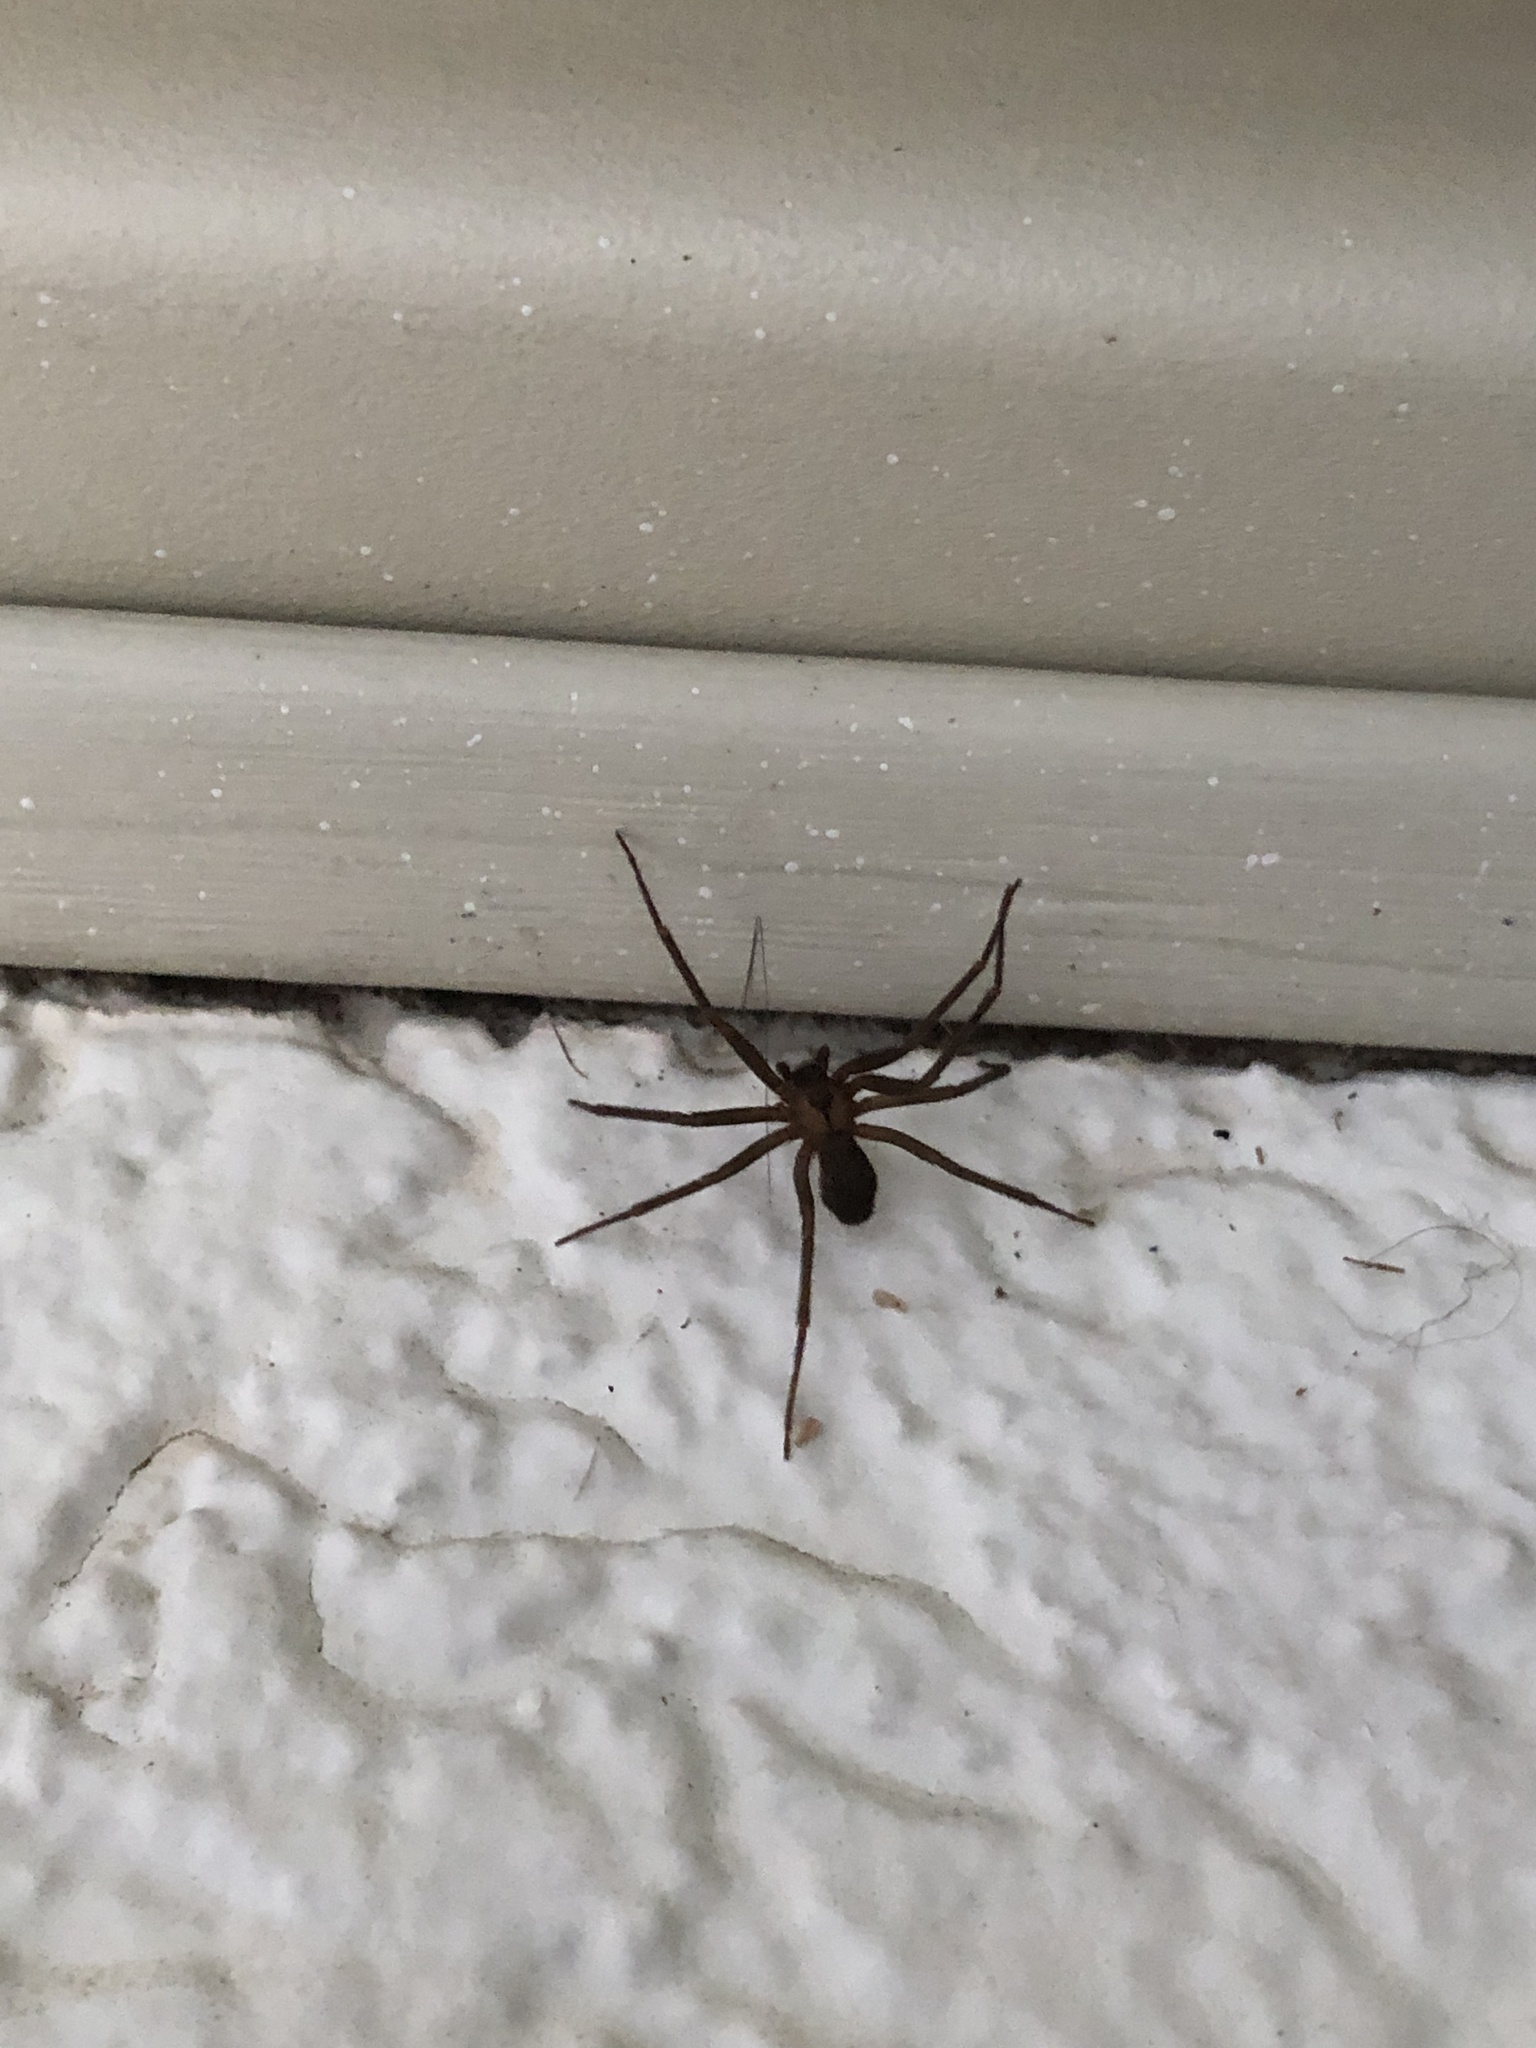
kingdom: Animalia
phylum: Arthropoda
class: Arachnida
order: Araneae
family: Sicariidae
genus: Loxosceles
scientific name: Loxosceles reclusa
